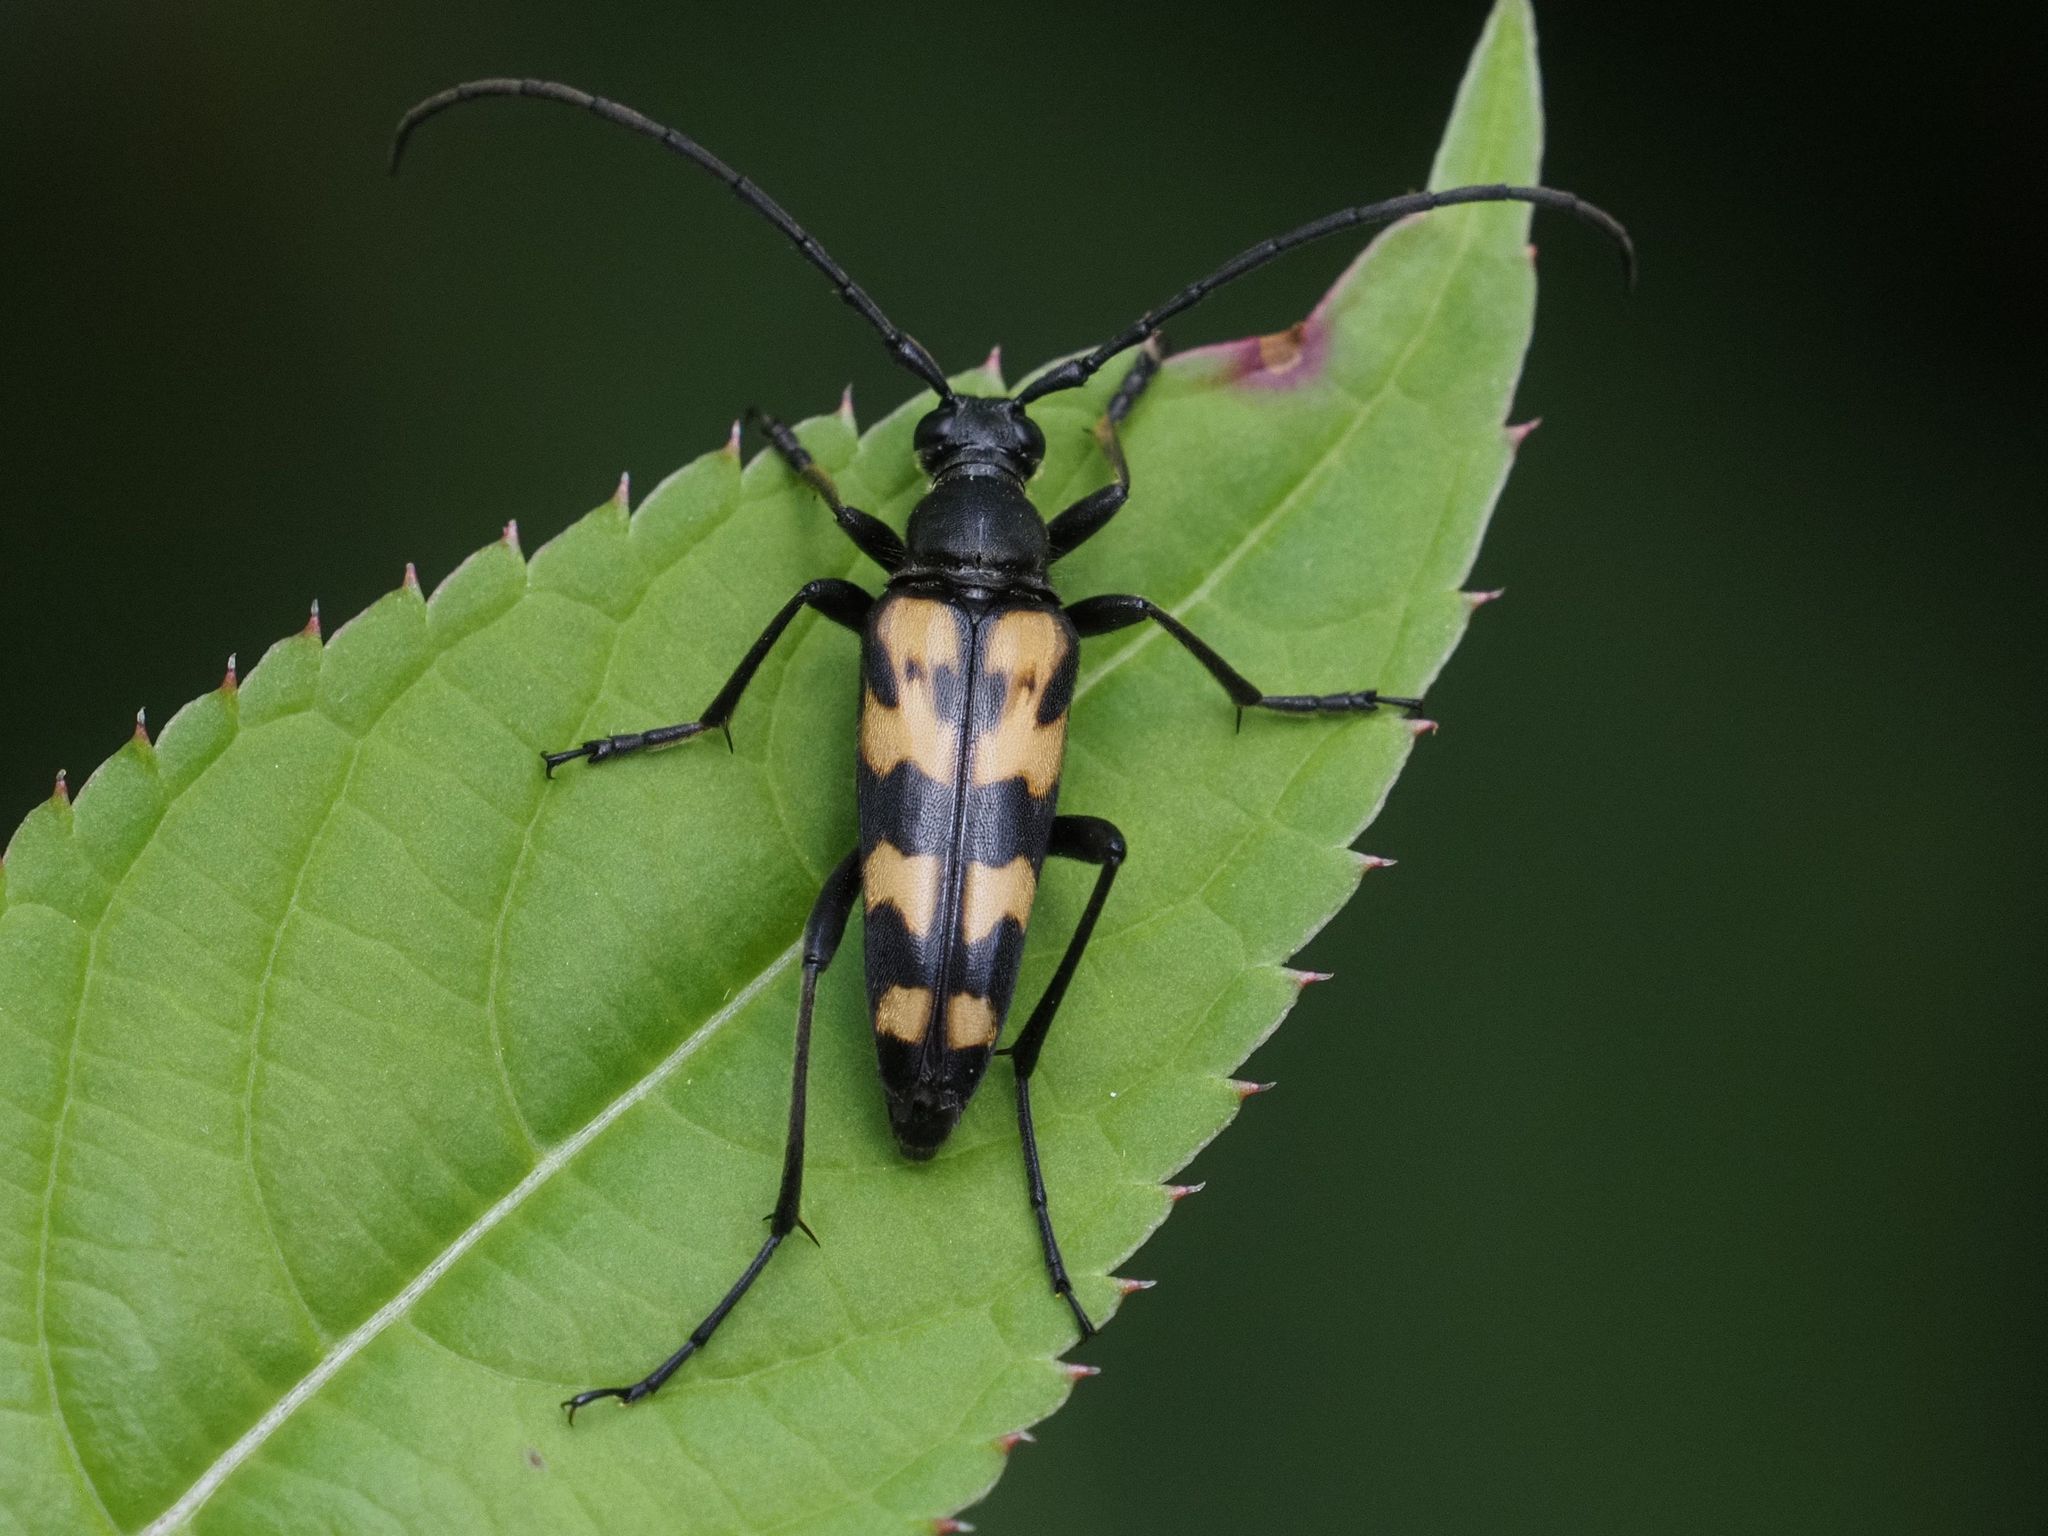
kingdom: Animalia
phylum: Arthropoda
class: Insecta
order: Coleoptera
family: Cerambycidae
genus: Leptura
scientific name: Leptura quadrifasciata
